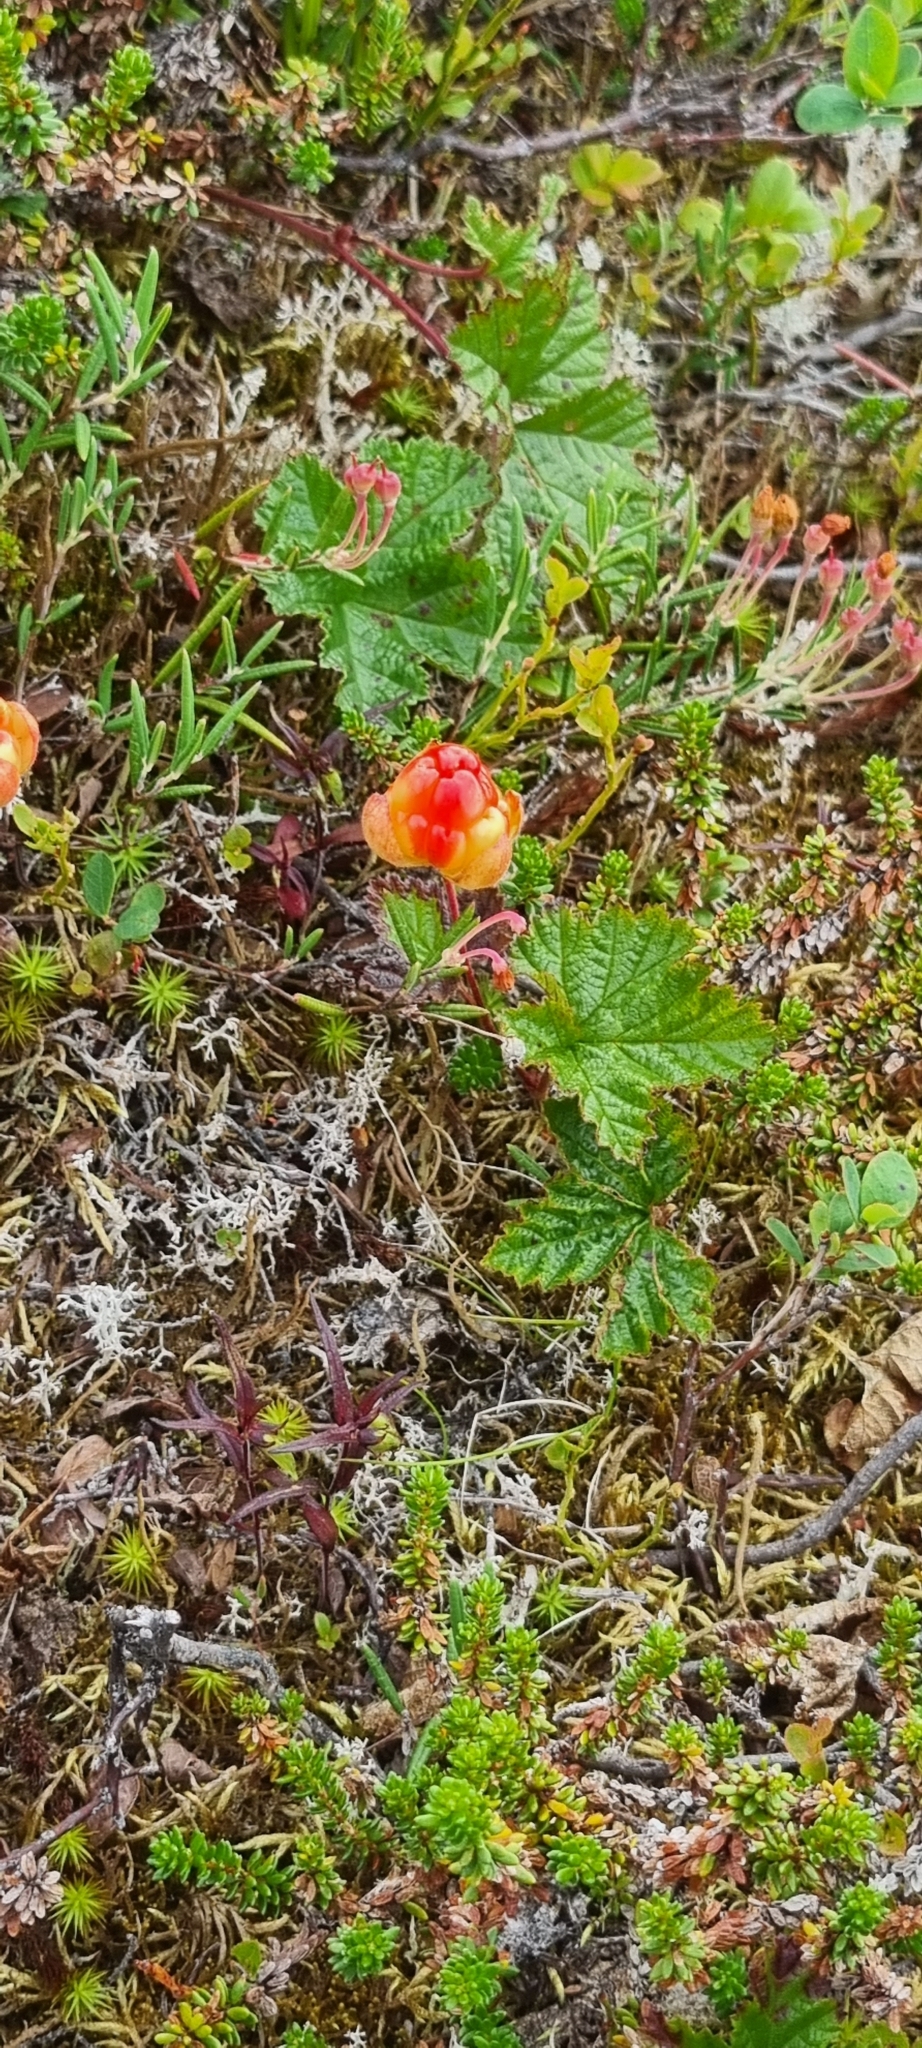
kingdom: Plantae
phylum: Tracheophyta
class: Magnoliopsida
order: Rosales
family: Rosaceae
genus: Rubus
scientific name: Rubus chamaemorus
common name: Cloudberry
